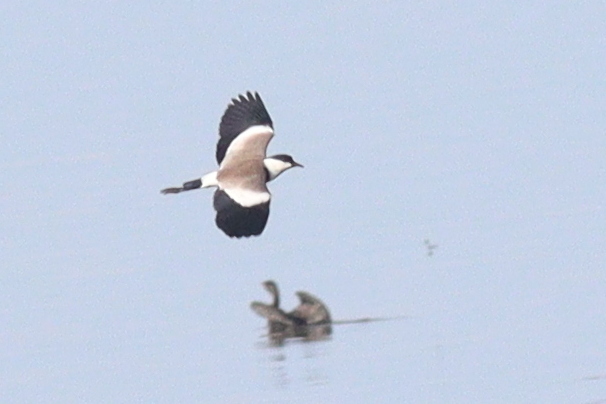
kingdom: Animalia
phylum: Chordata
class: Aves
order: Charadriiformes
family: Charadriidae
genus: Vanellus
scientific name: Vanellus spinosus
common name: Spur-winged lapwing
